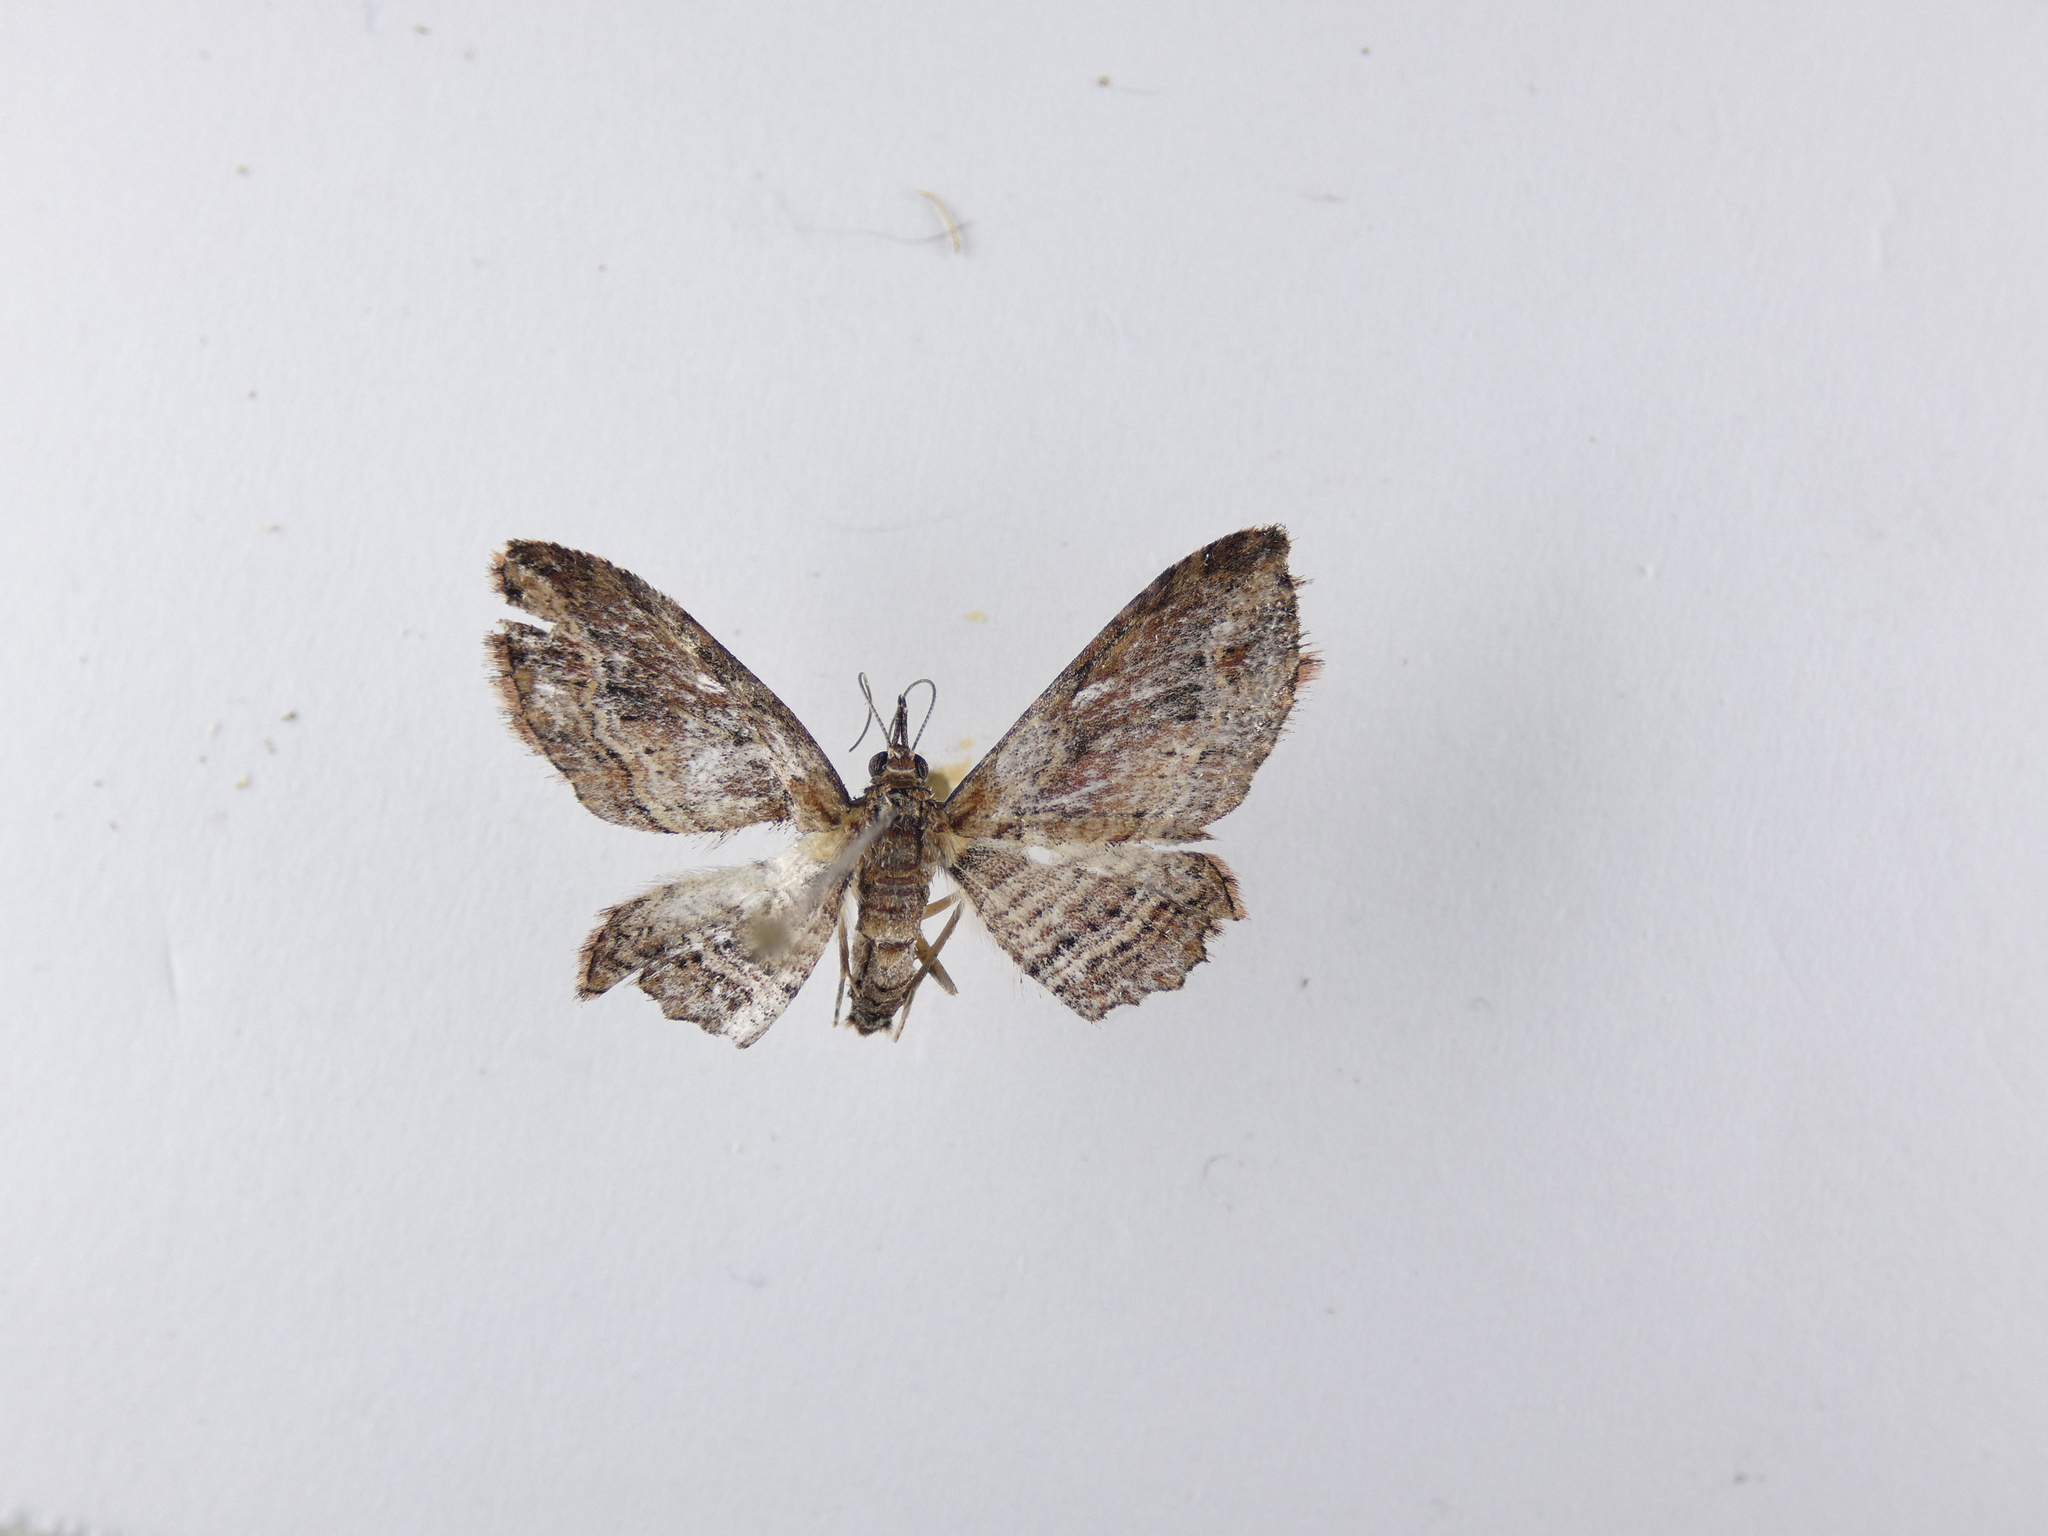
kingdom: Animalia
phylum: Arthropoda
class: Insecta
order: Lepidoptera
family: Geometridae
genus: Chloroclystis
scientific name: Chloroclystis filata
